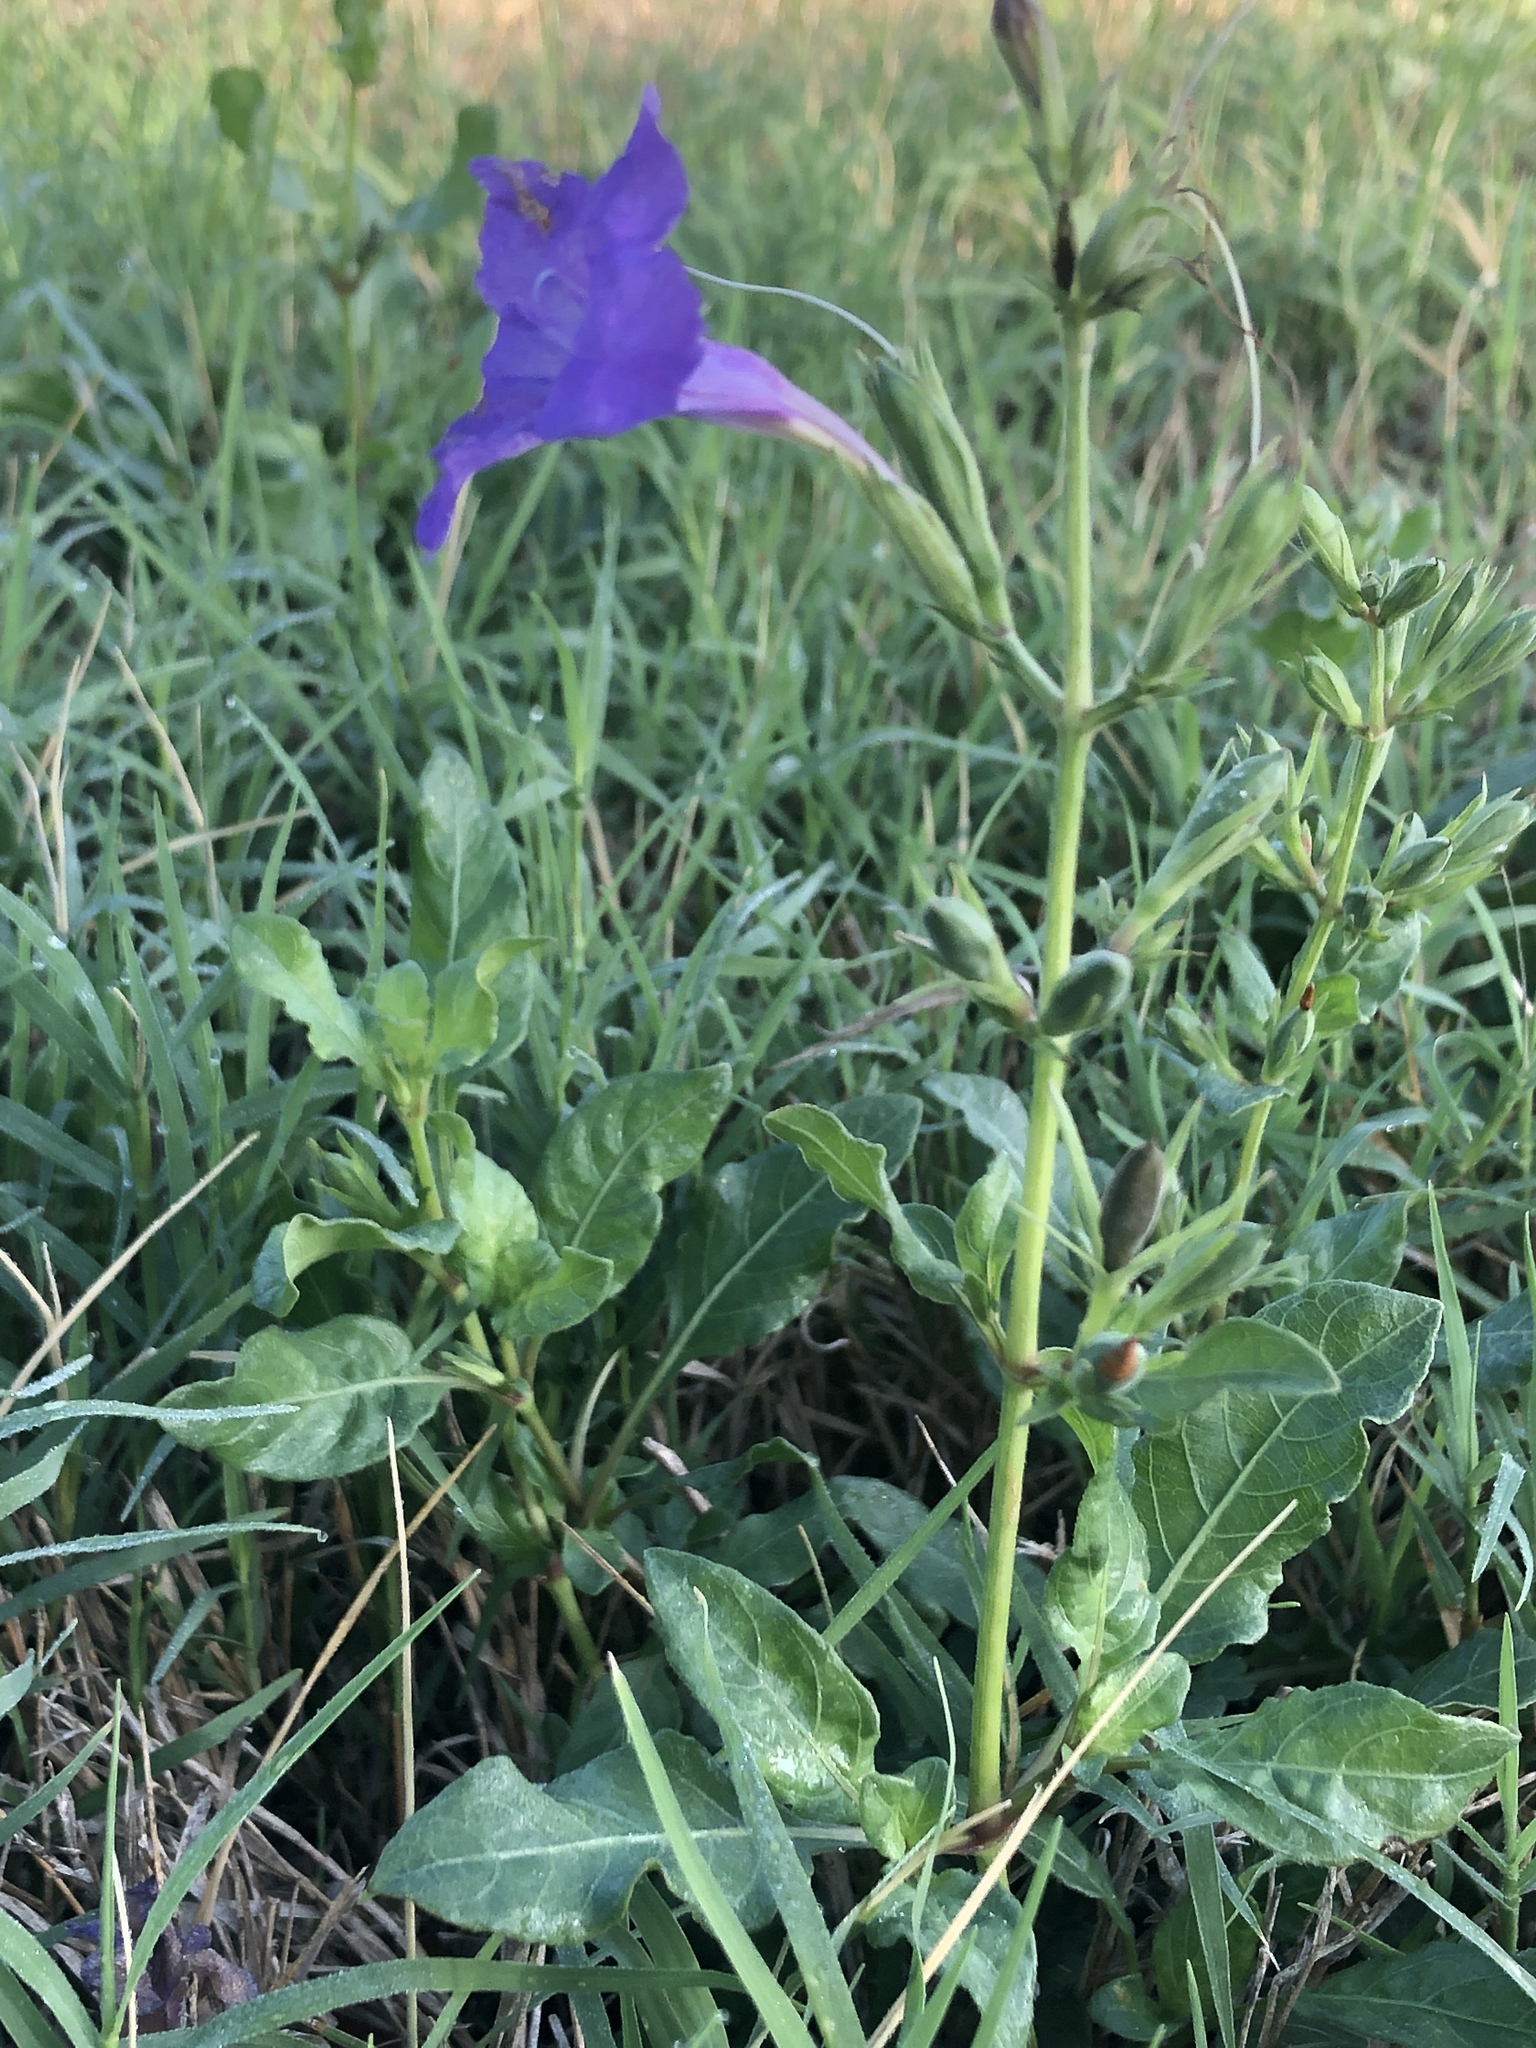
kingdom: Plantae
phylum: Tracheophyta
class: Magnoliopsida
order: Lamiales
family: Acanthaceae
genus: Ruellia
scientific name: Ruellia ciliatiflora
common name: Hairyflower wild petunia
